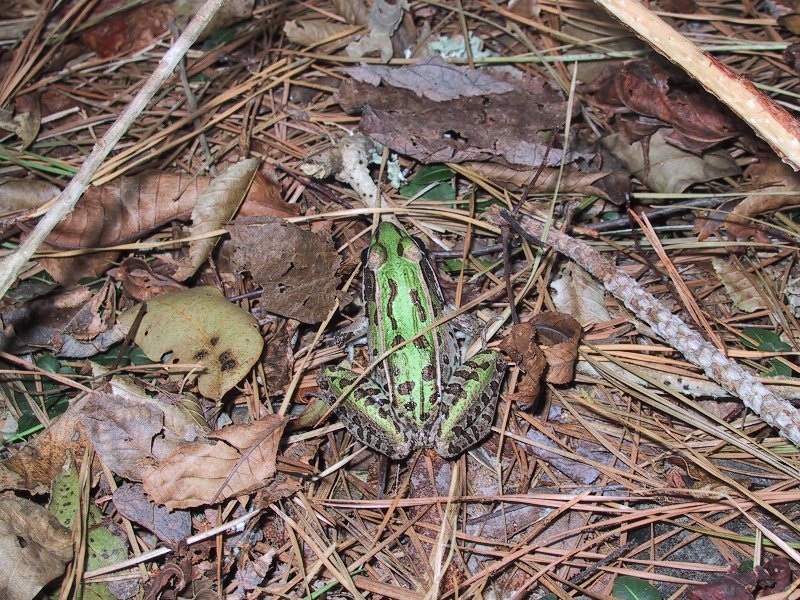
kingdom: Animalia
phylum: Chordata
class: Amphibia
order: Anura
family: Ranidae
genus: Lithobates
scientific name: Lithobates sphenocephalus
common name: Southern leopard frog
